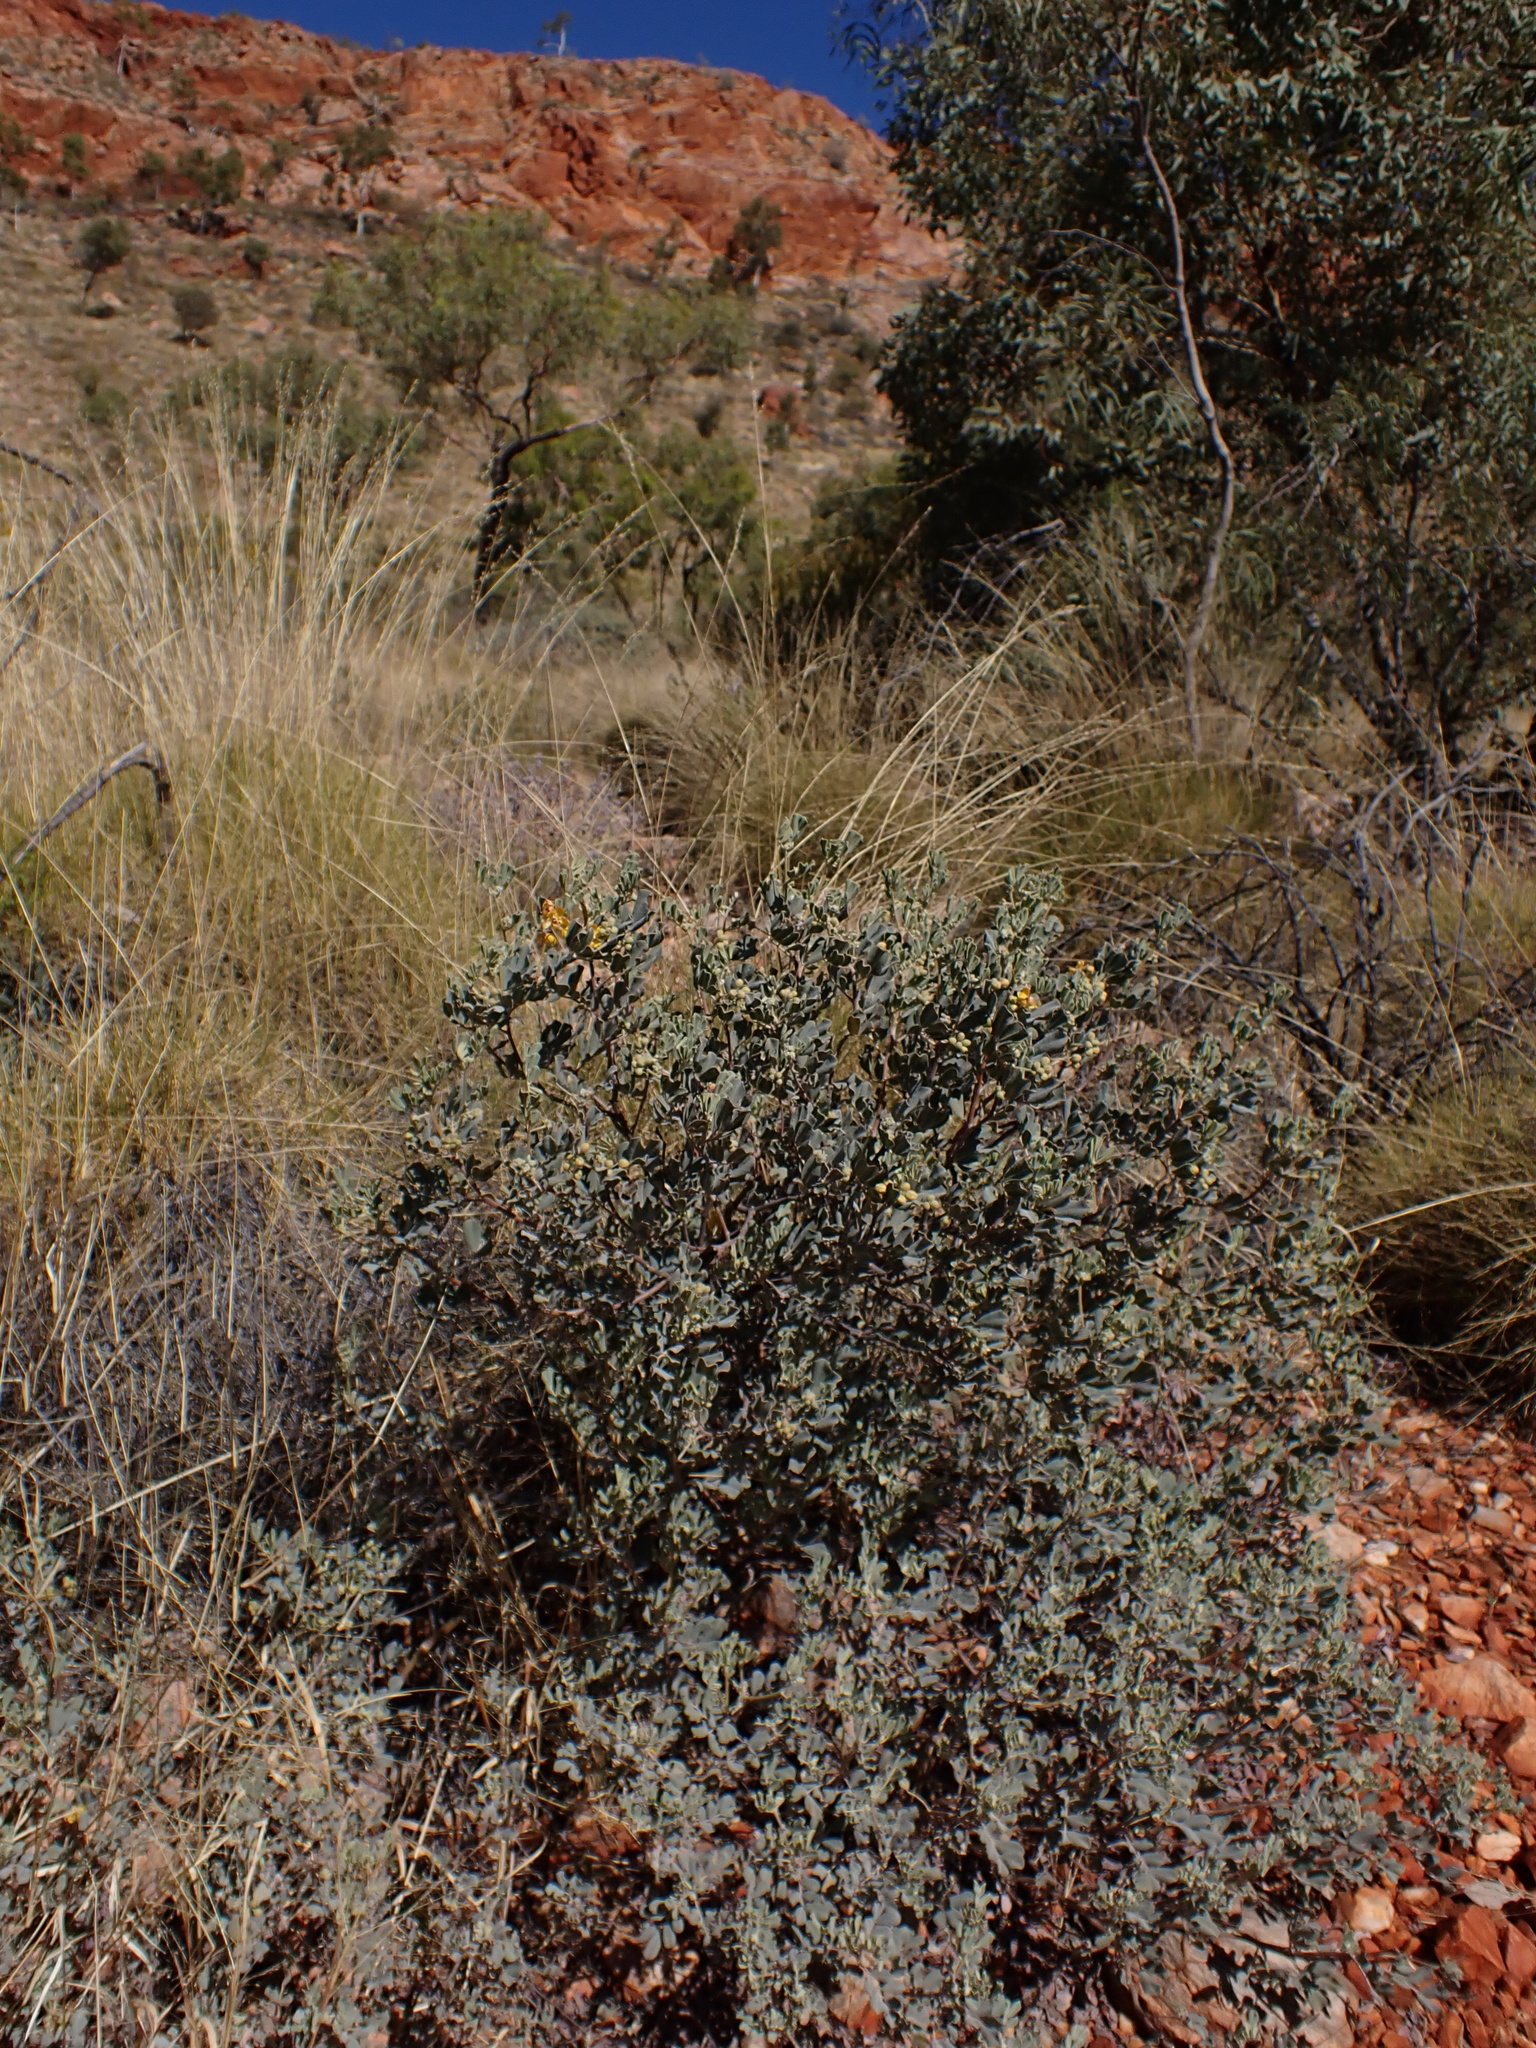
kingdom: Plantae
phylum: Tracheophyta
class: Magnoliopsida
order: Fabales
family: Fabaceae
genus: Senna
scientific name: Senna artemisioides
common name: Burnt-leaved acacia
